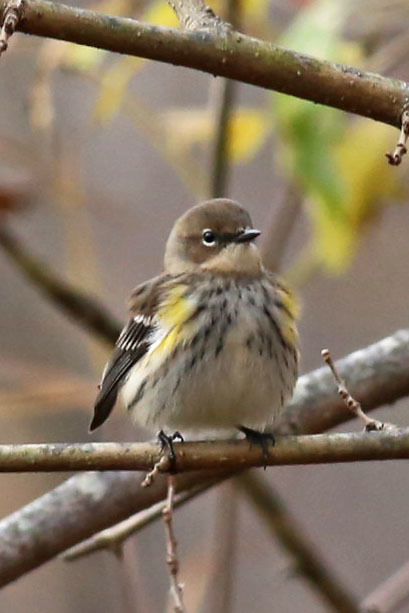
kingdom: Animalia
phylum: Chordata
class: Aves
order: Passeriformes
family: Parulidae
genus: Setophaga
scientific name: Setophaga coronata
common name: Myrtle warbler
